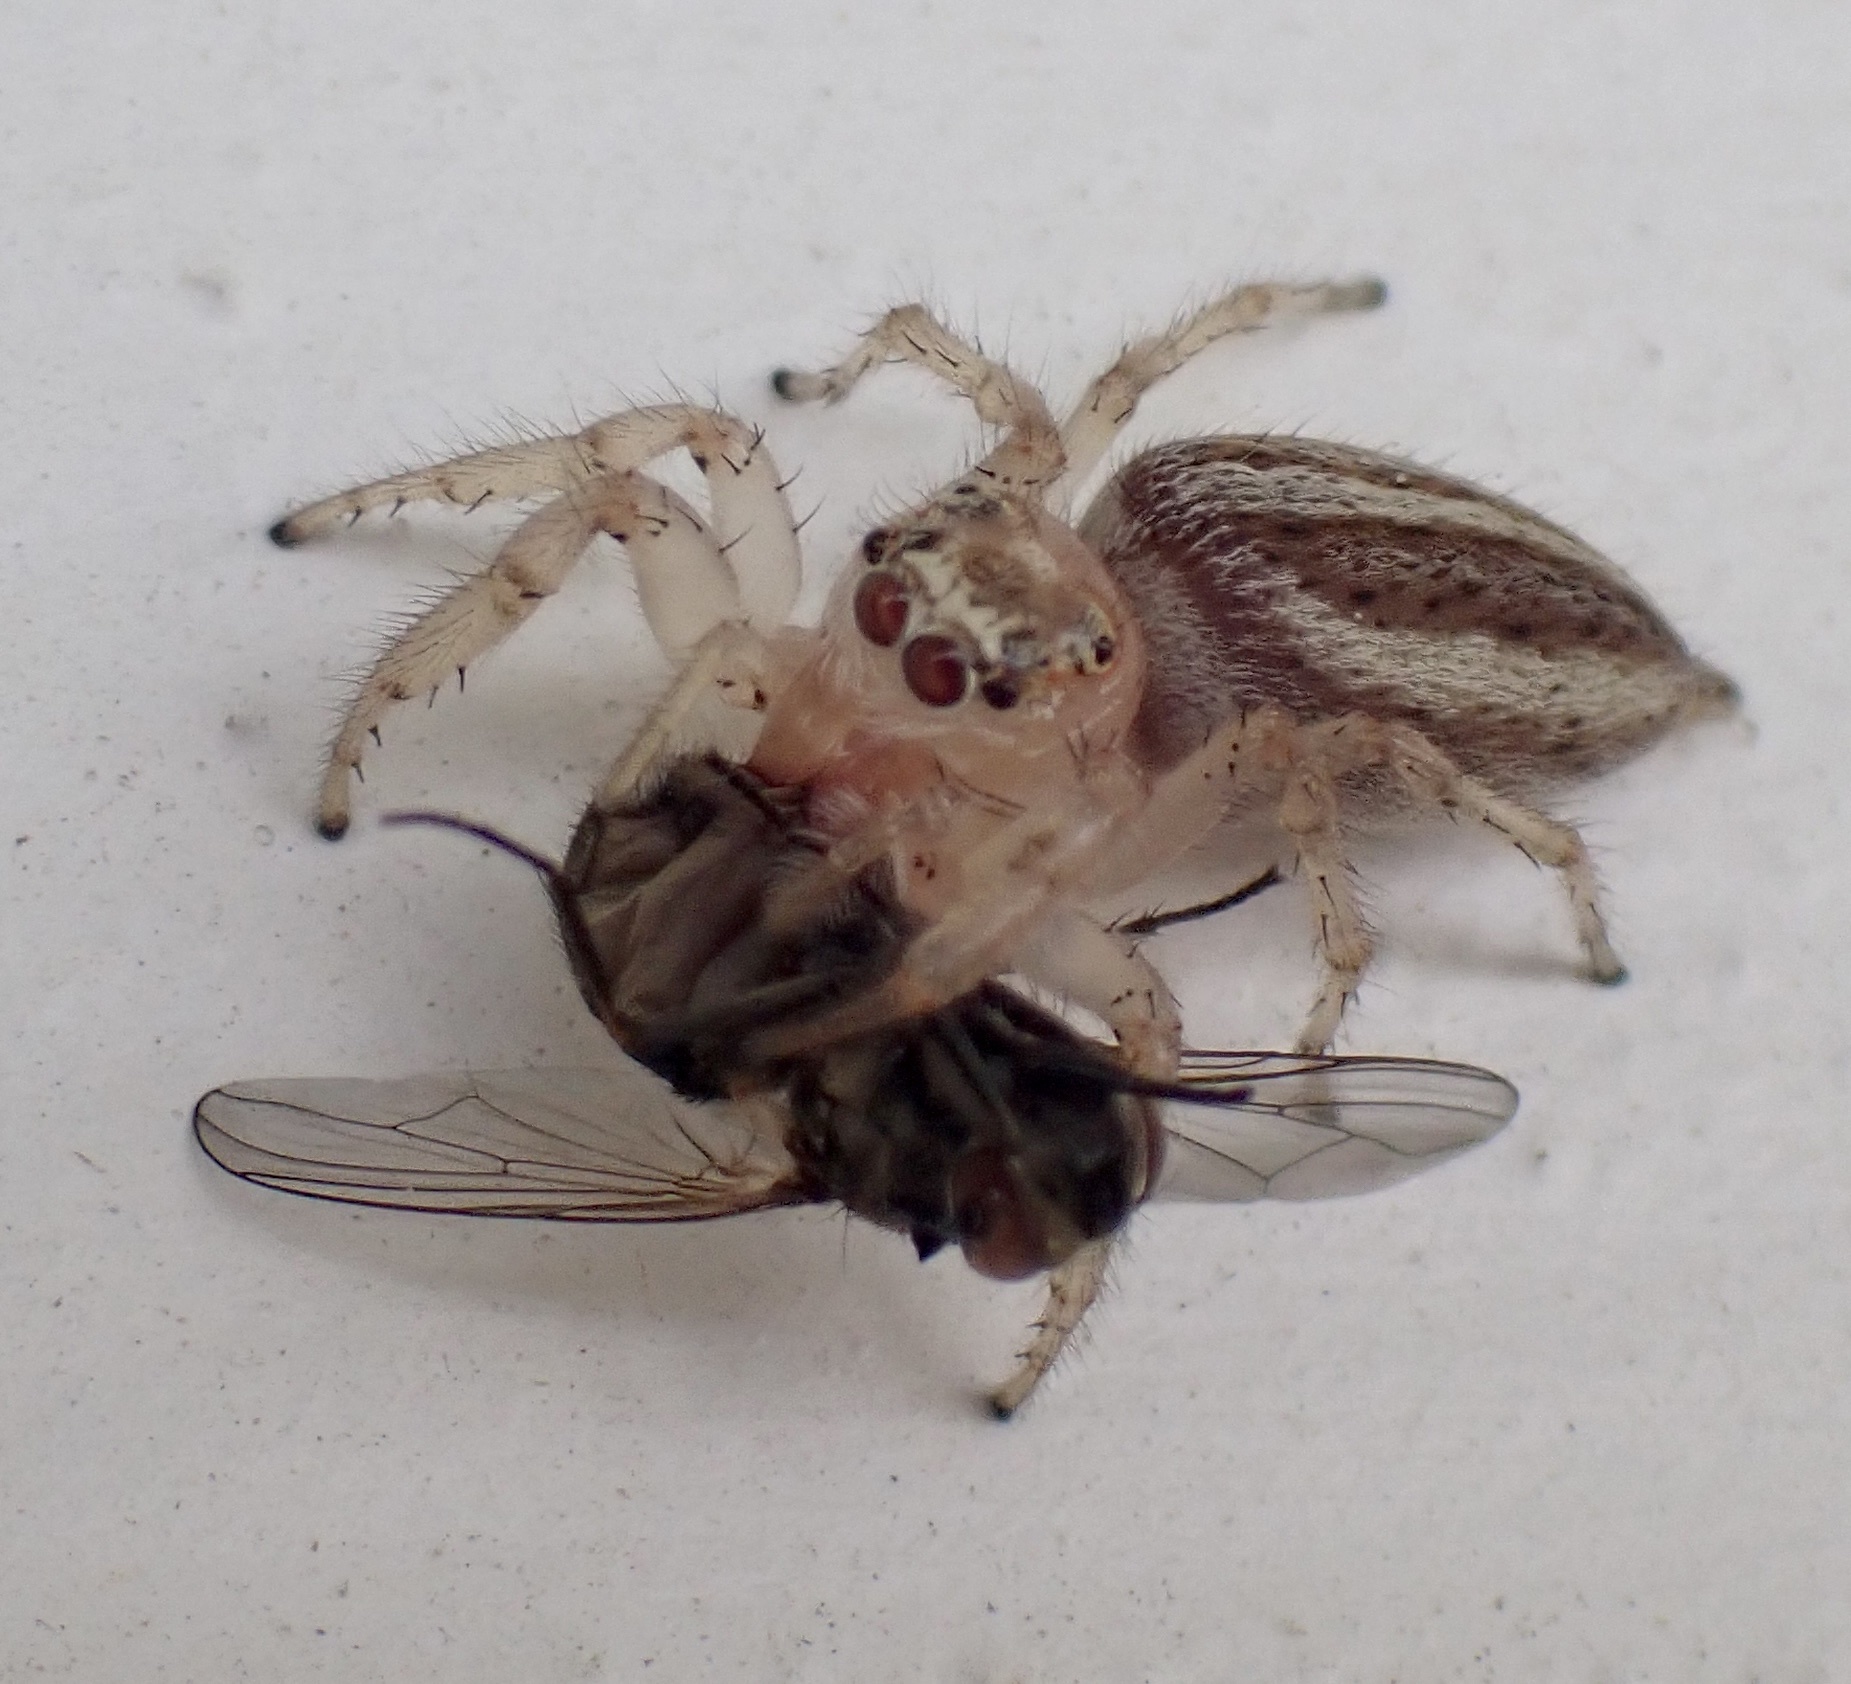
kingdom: Animalia
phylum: Arthropoda
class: Arachnida
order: Araneae
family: Salticidae
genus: Colonus
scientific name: Colonus sylvanus
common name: Jumping spiders
